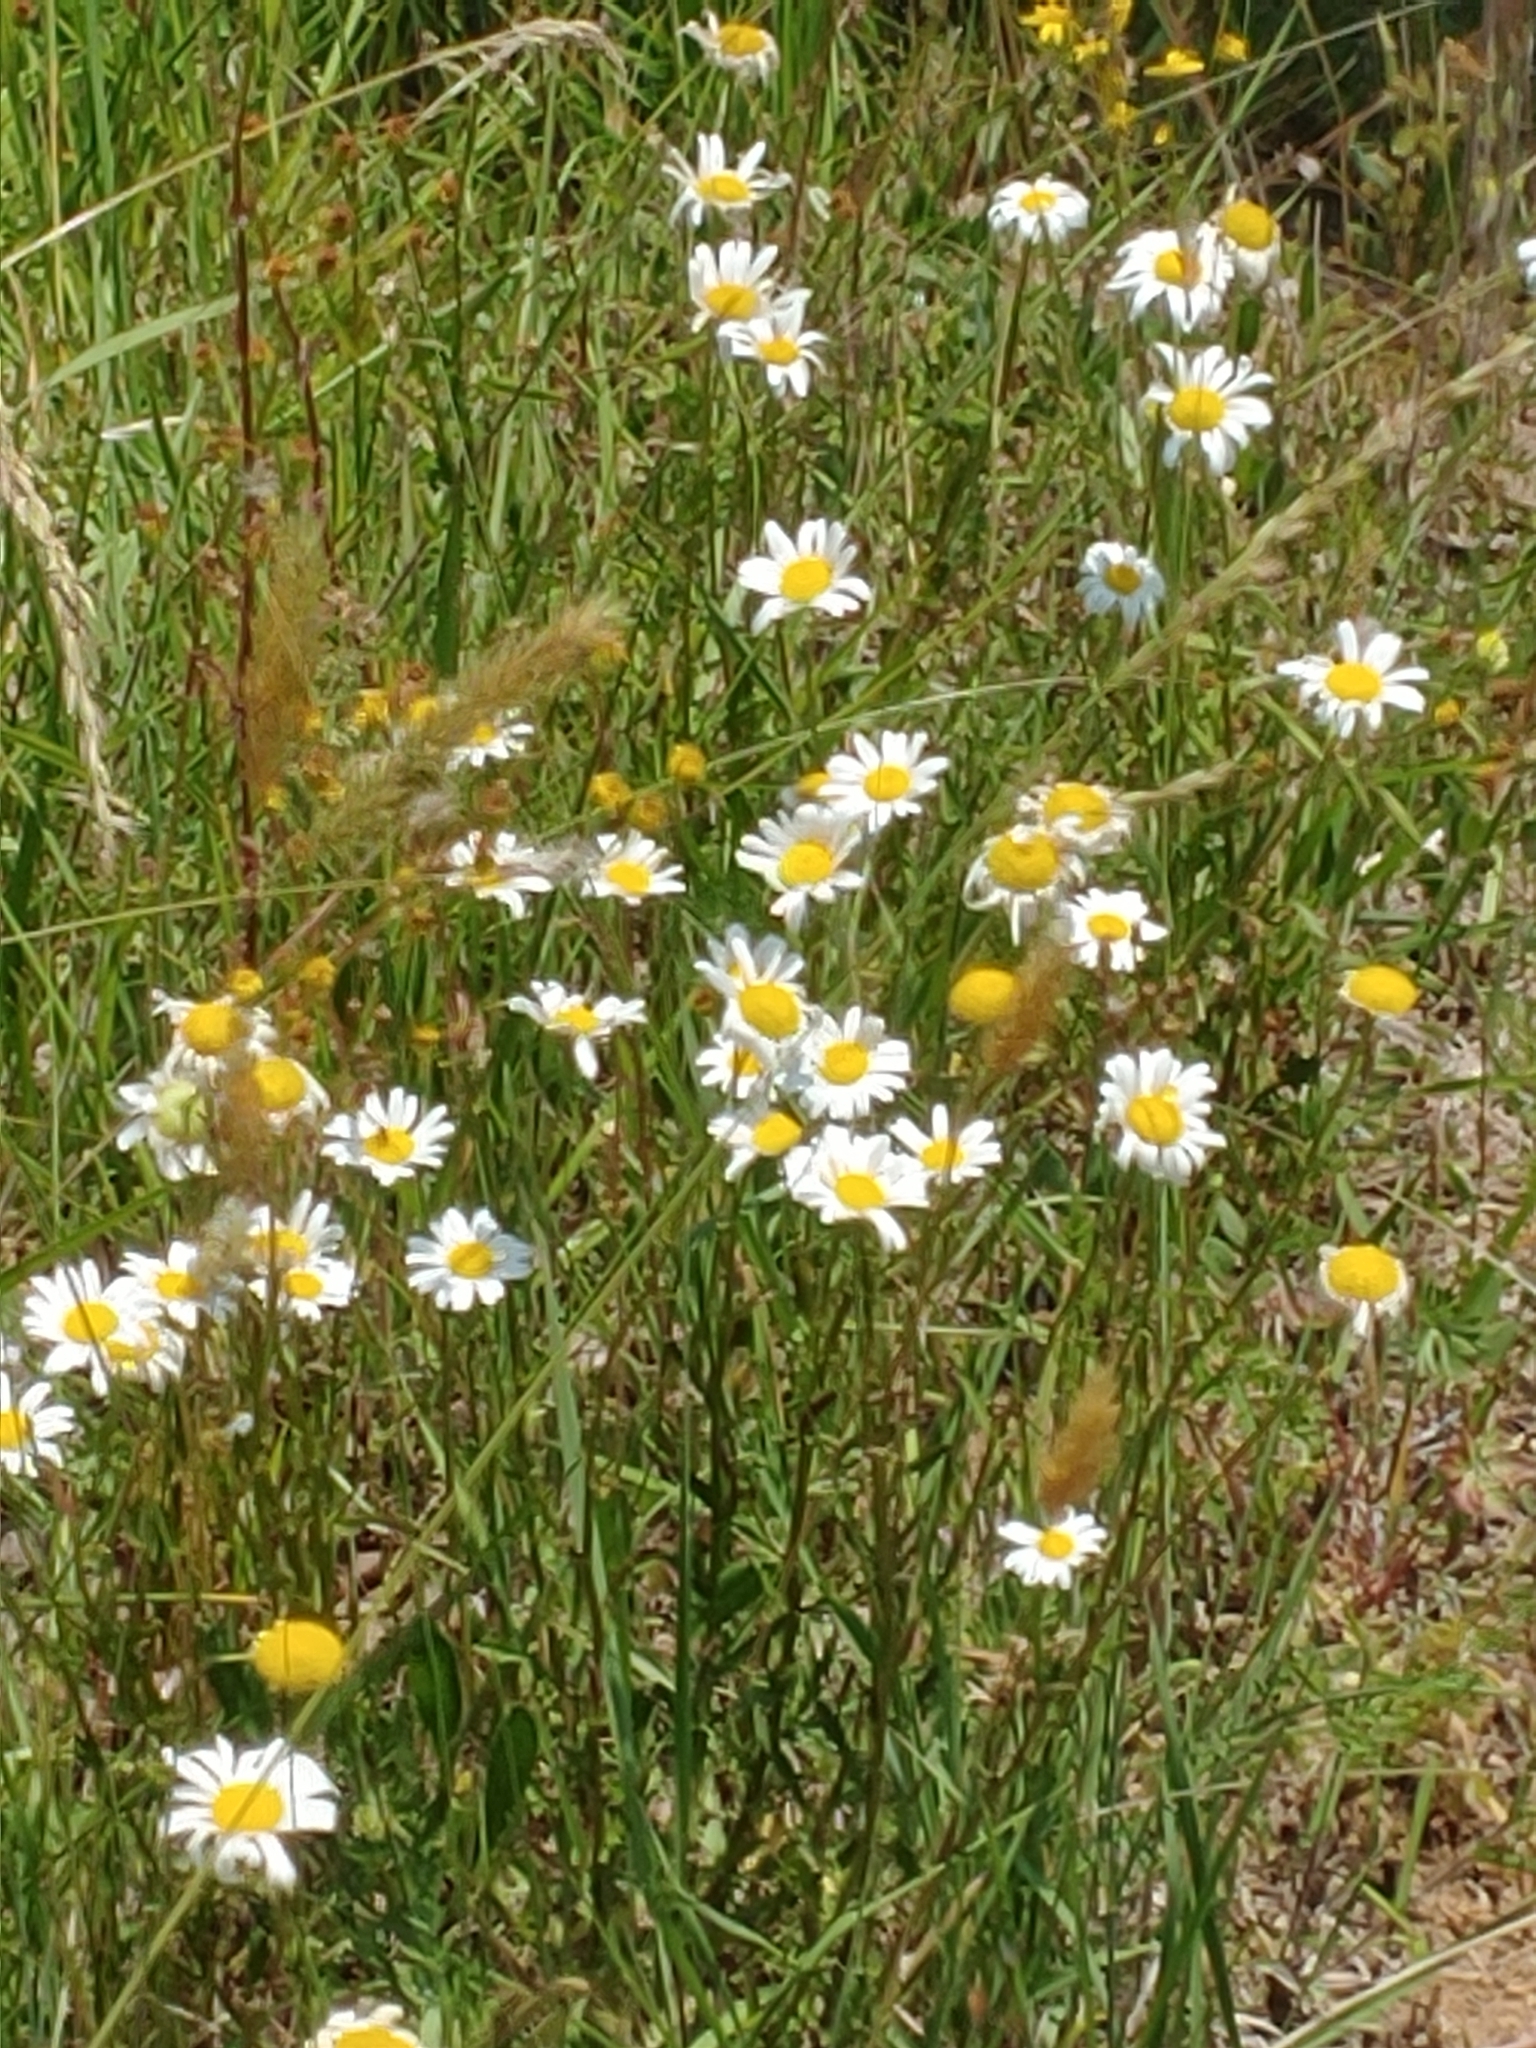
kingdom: Plantae
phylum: Tracheophyta
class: Magnoliopsida
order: Asterales
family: Asteraceae
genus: Leucanthemum
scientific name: Leucanthemum vulgare
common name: Oxeye daisy
